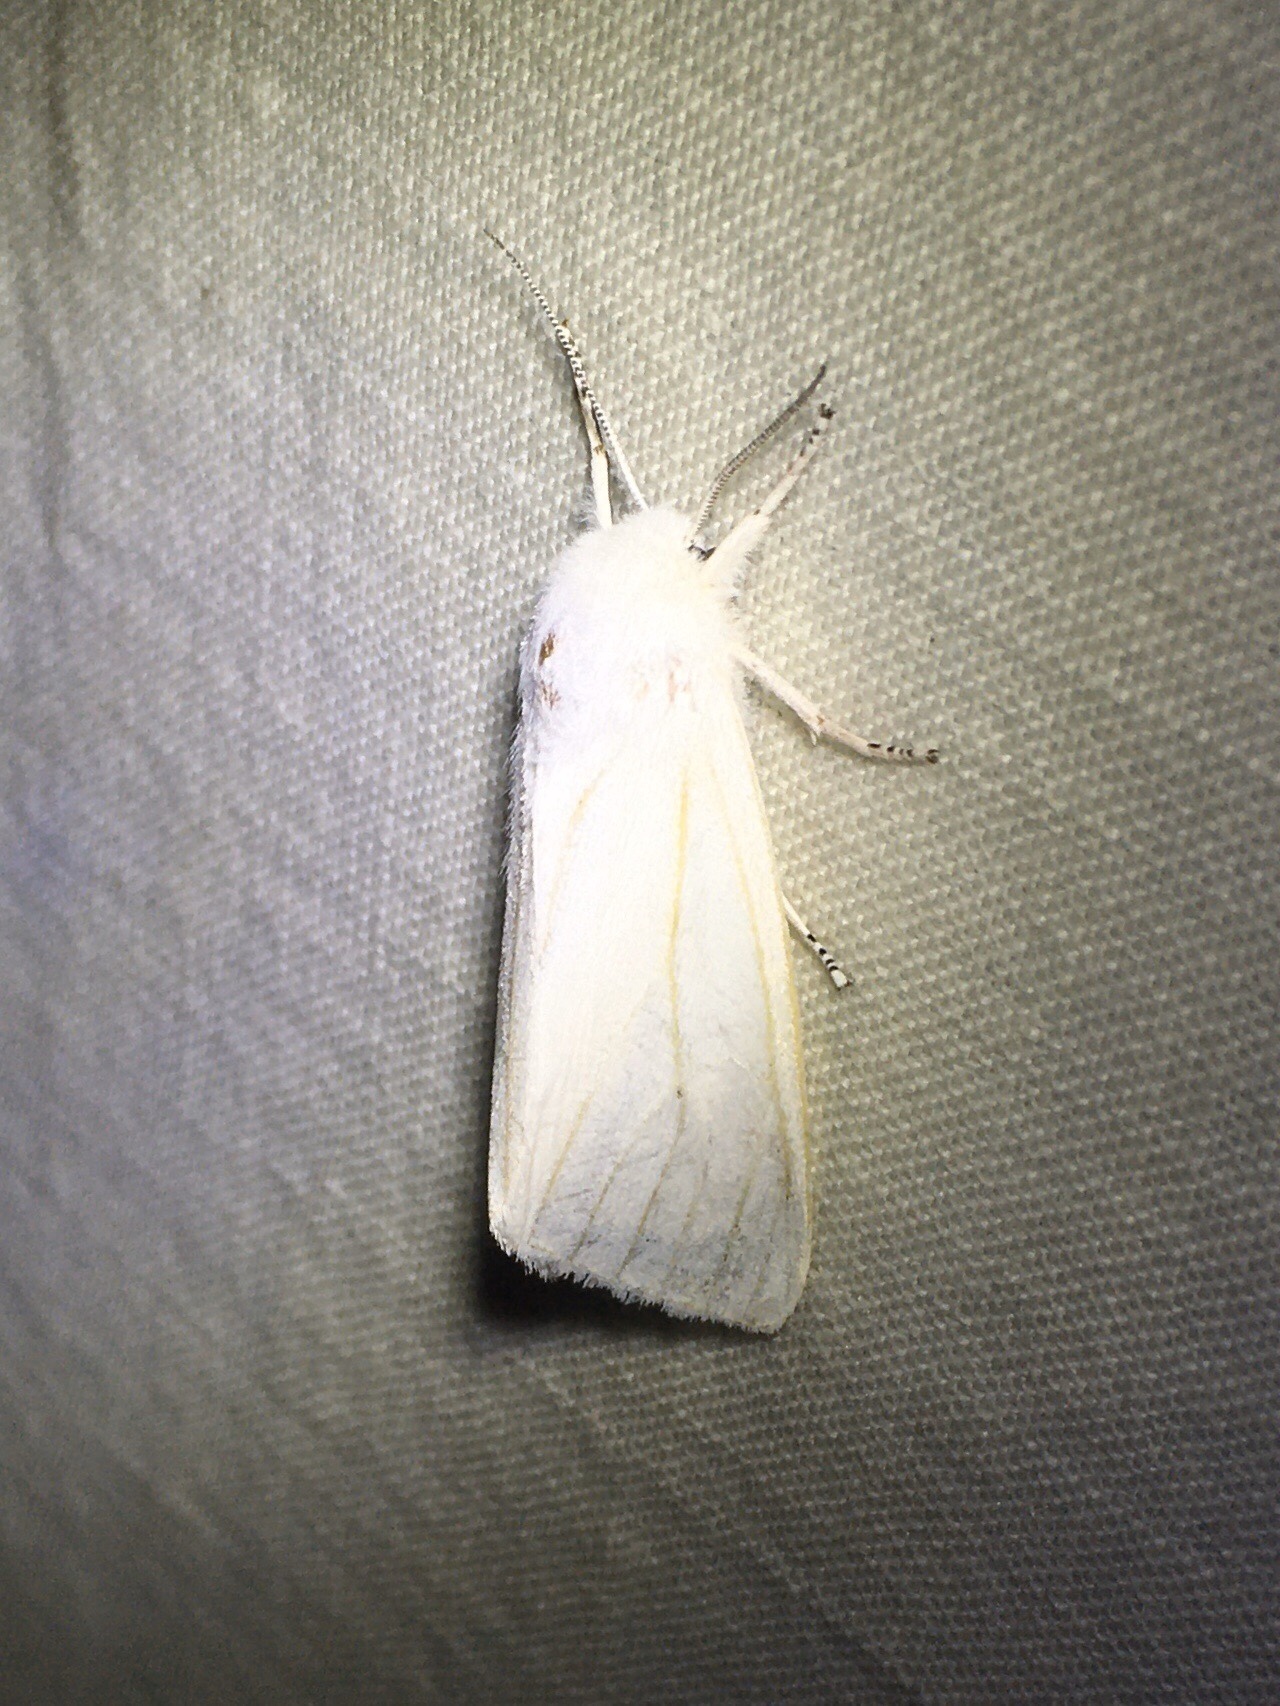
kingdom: Animalia
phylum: Arthropoda
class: Insecta
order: Lepidoptera
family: Erebidae
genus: Spilosoma
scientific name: Spilosoma virginica
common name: Virginia tiger moth
